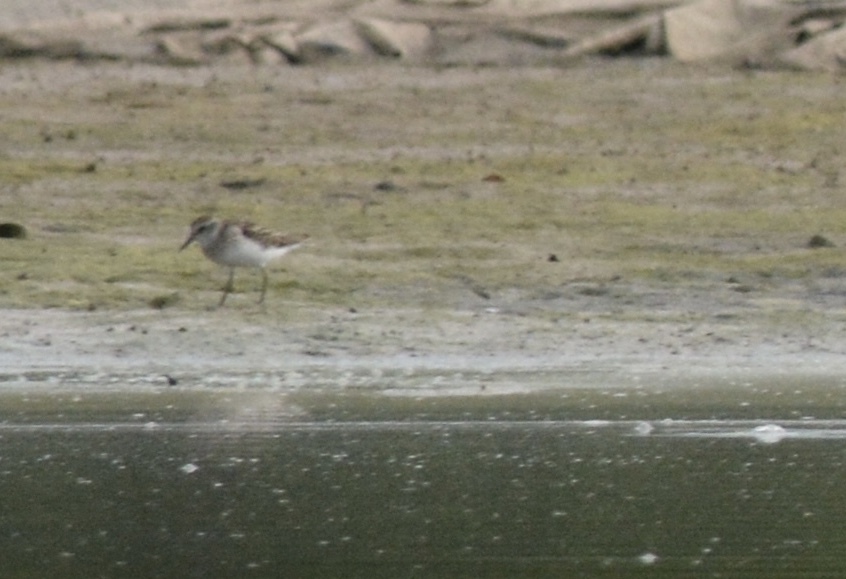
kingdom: Animalia
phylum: Chordata
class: Aves
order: Charadriiformes
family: Scolopacidae
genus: Calidris
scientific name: Calidris minutilla
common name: Least sandpiper
